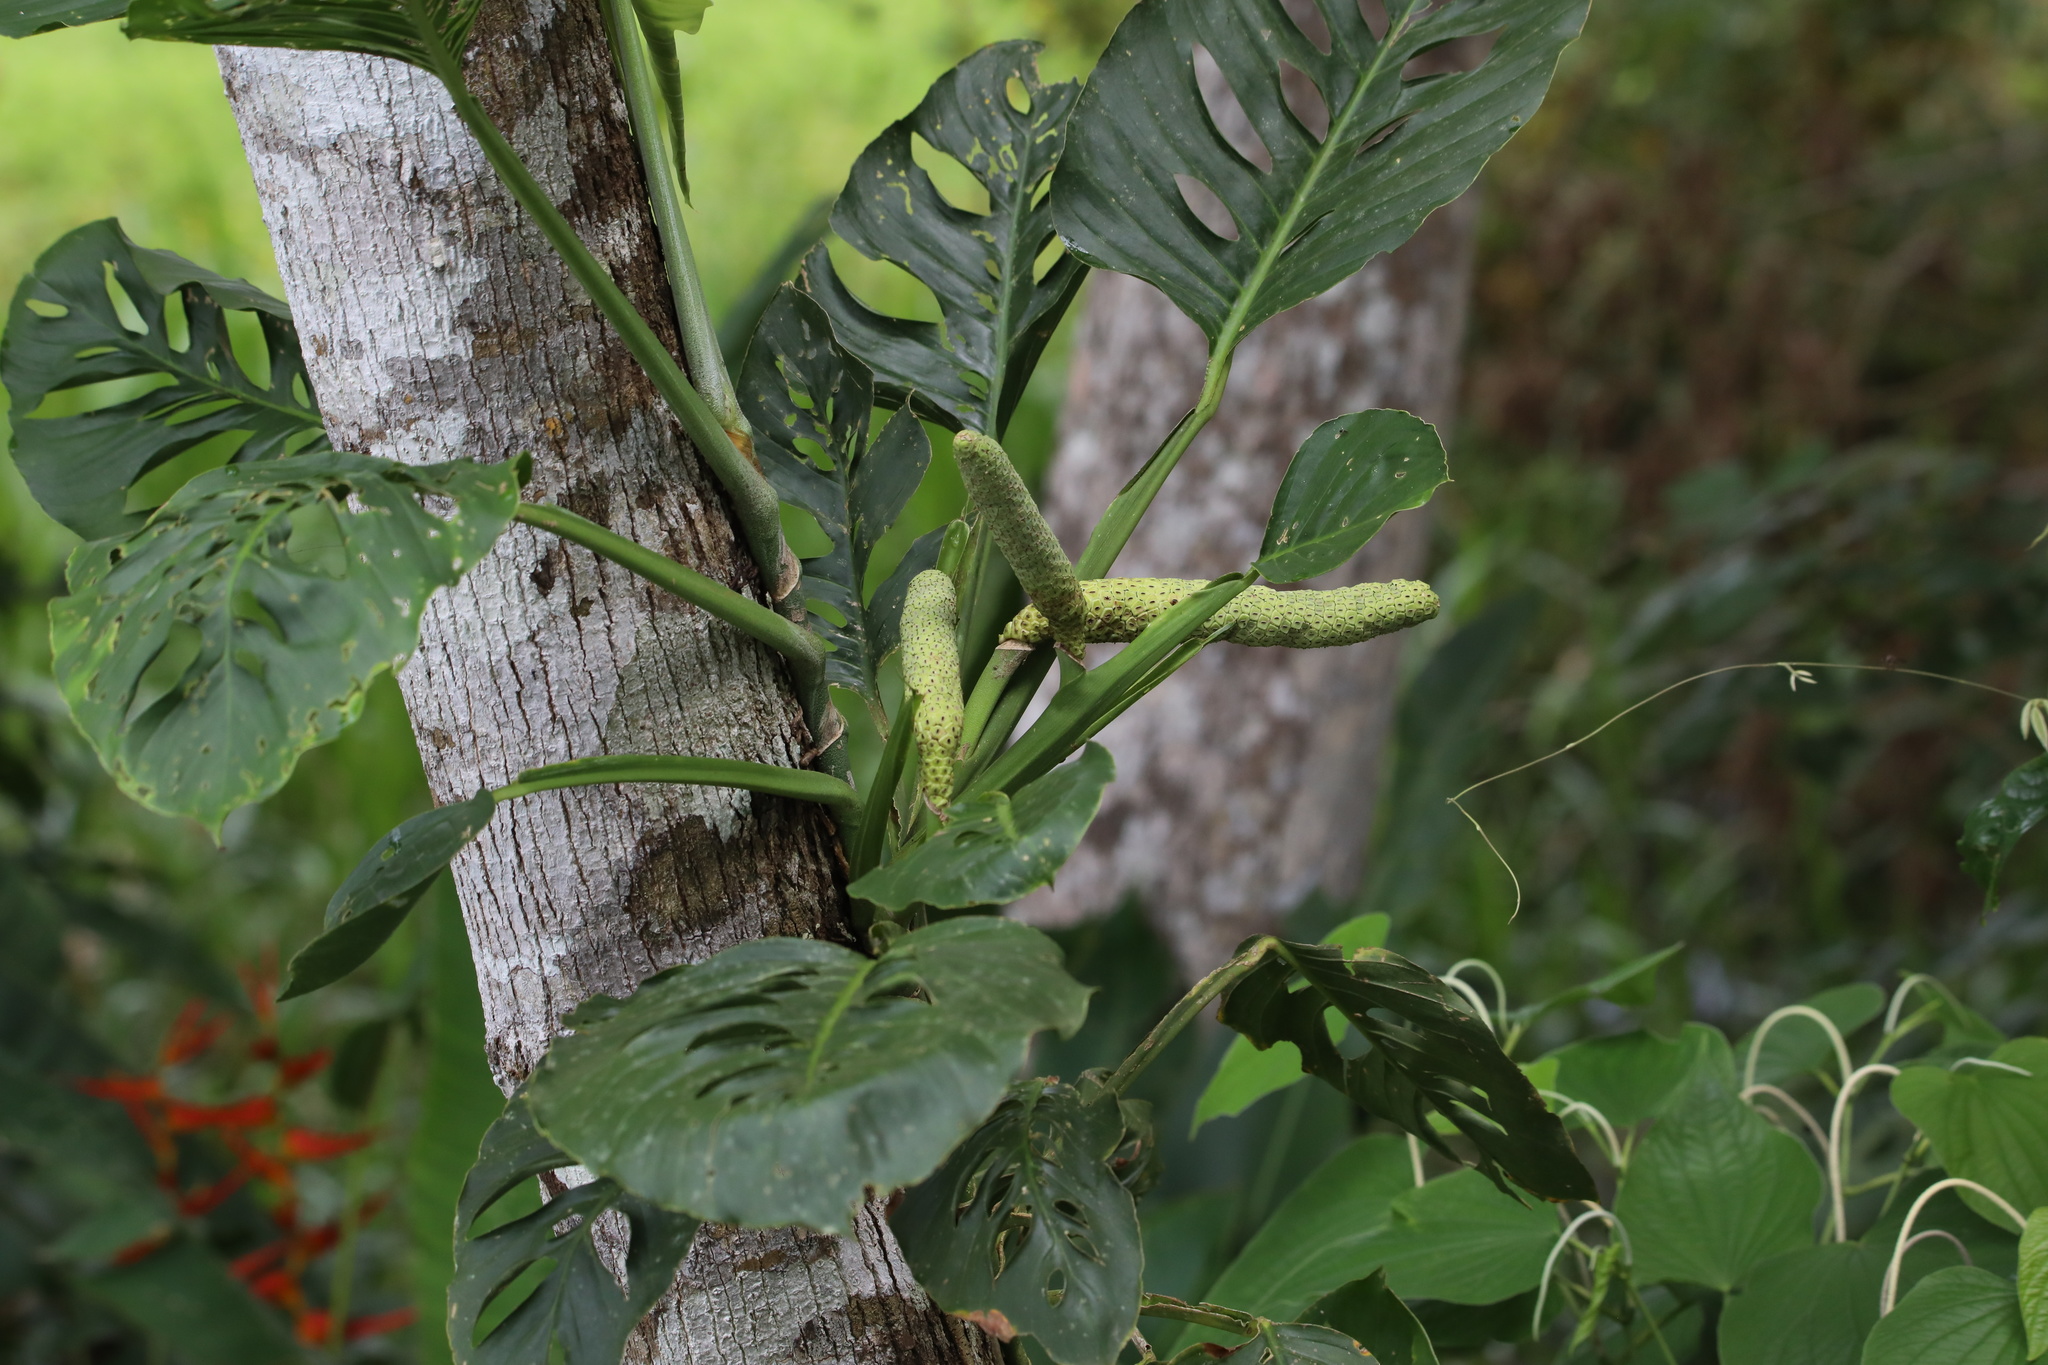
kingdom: Plantae
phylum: Tracheophyta
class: Liliopsida
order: Alismatales
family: Araceae
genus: Monstera
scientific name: Monstera adansonii
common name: Tarovine
